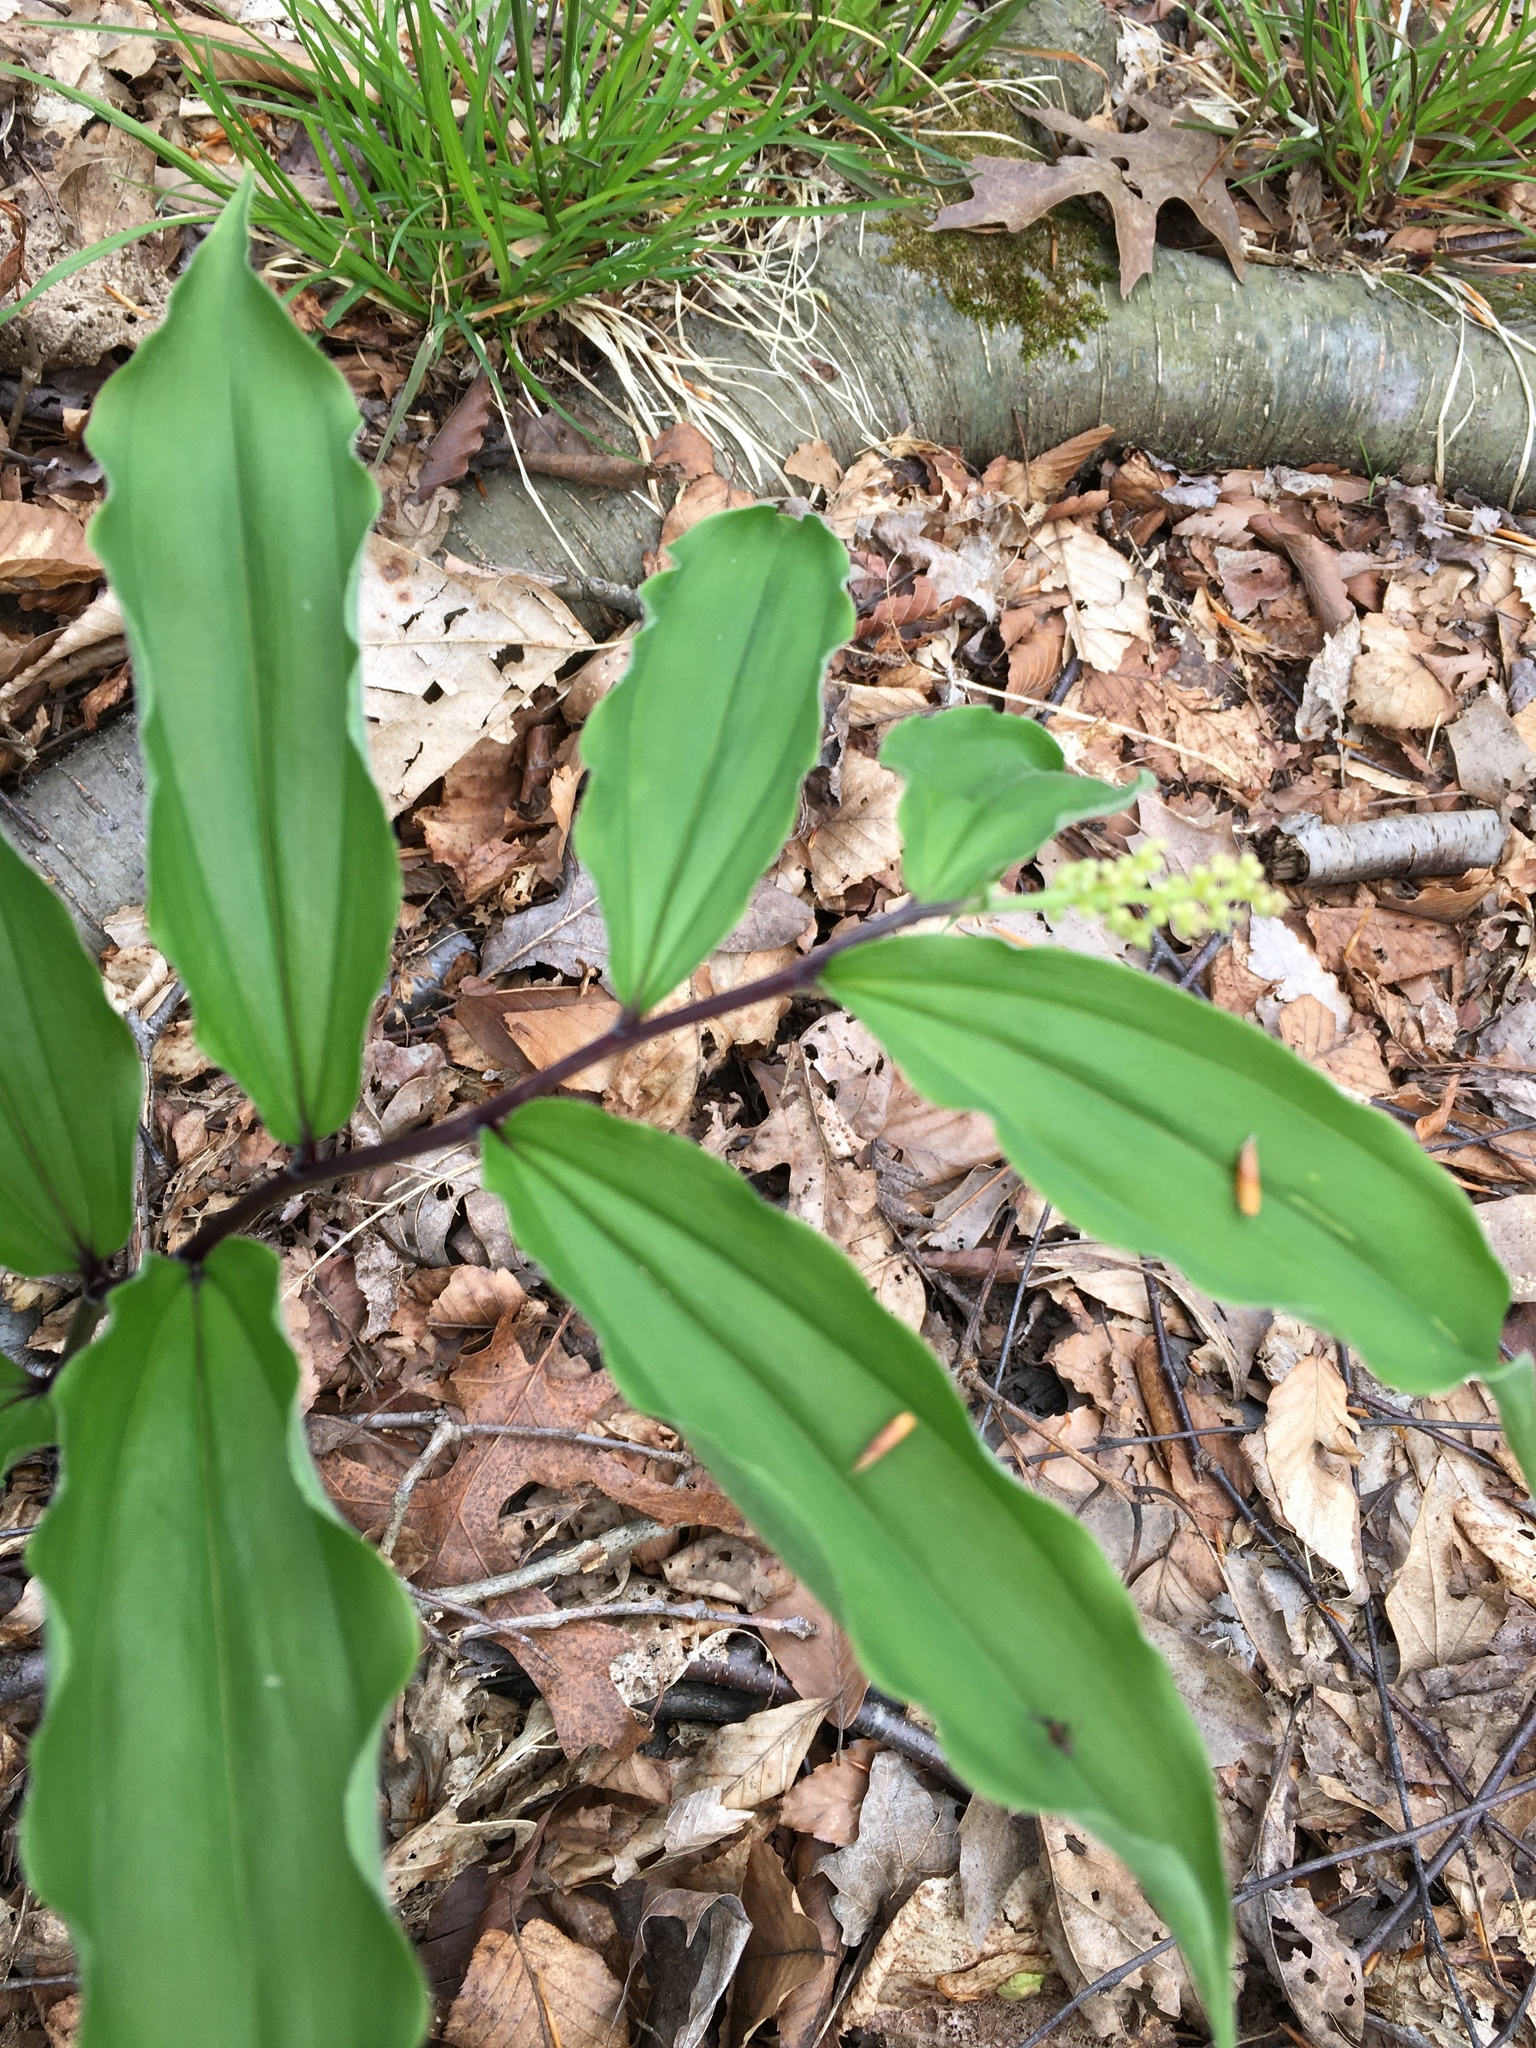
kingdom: Plantae
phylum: Tracheophyta
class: Liliopsida
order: Asparagales
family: Asparagaceae
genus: Maianthemum
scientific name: Maianthemum racemosum
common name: False spikenard
